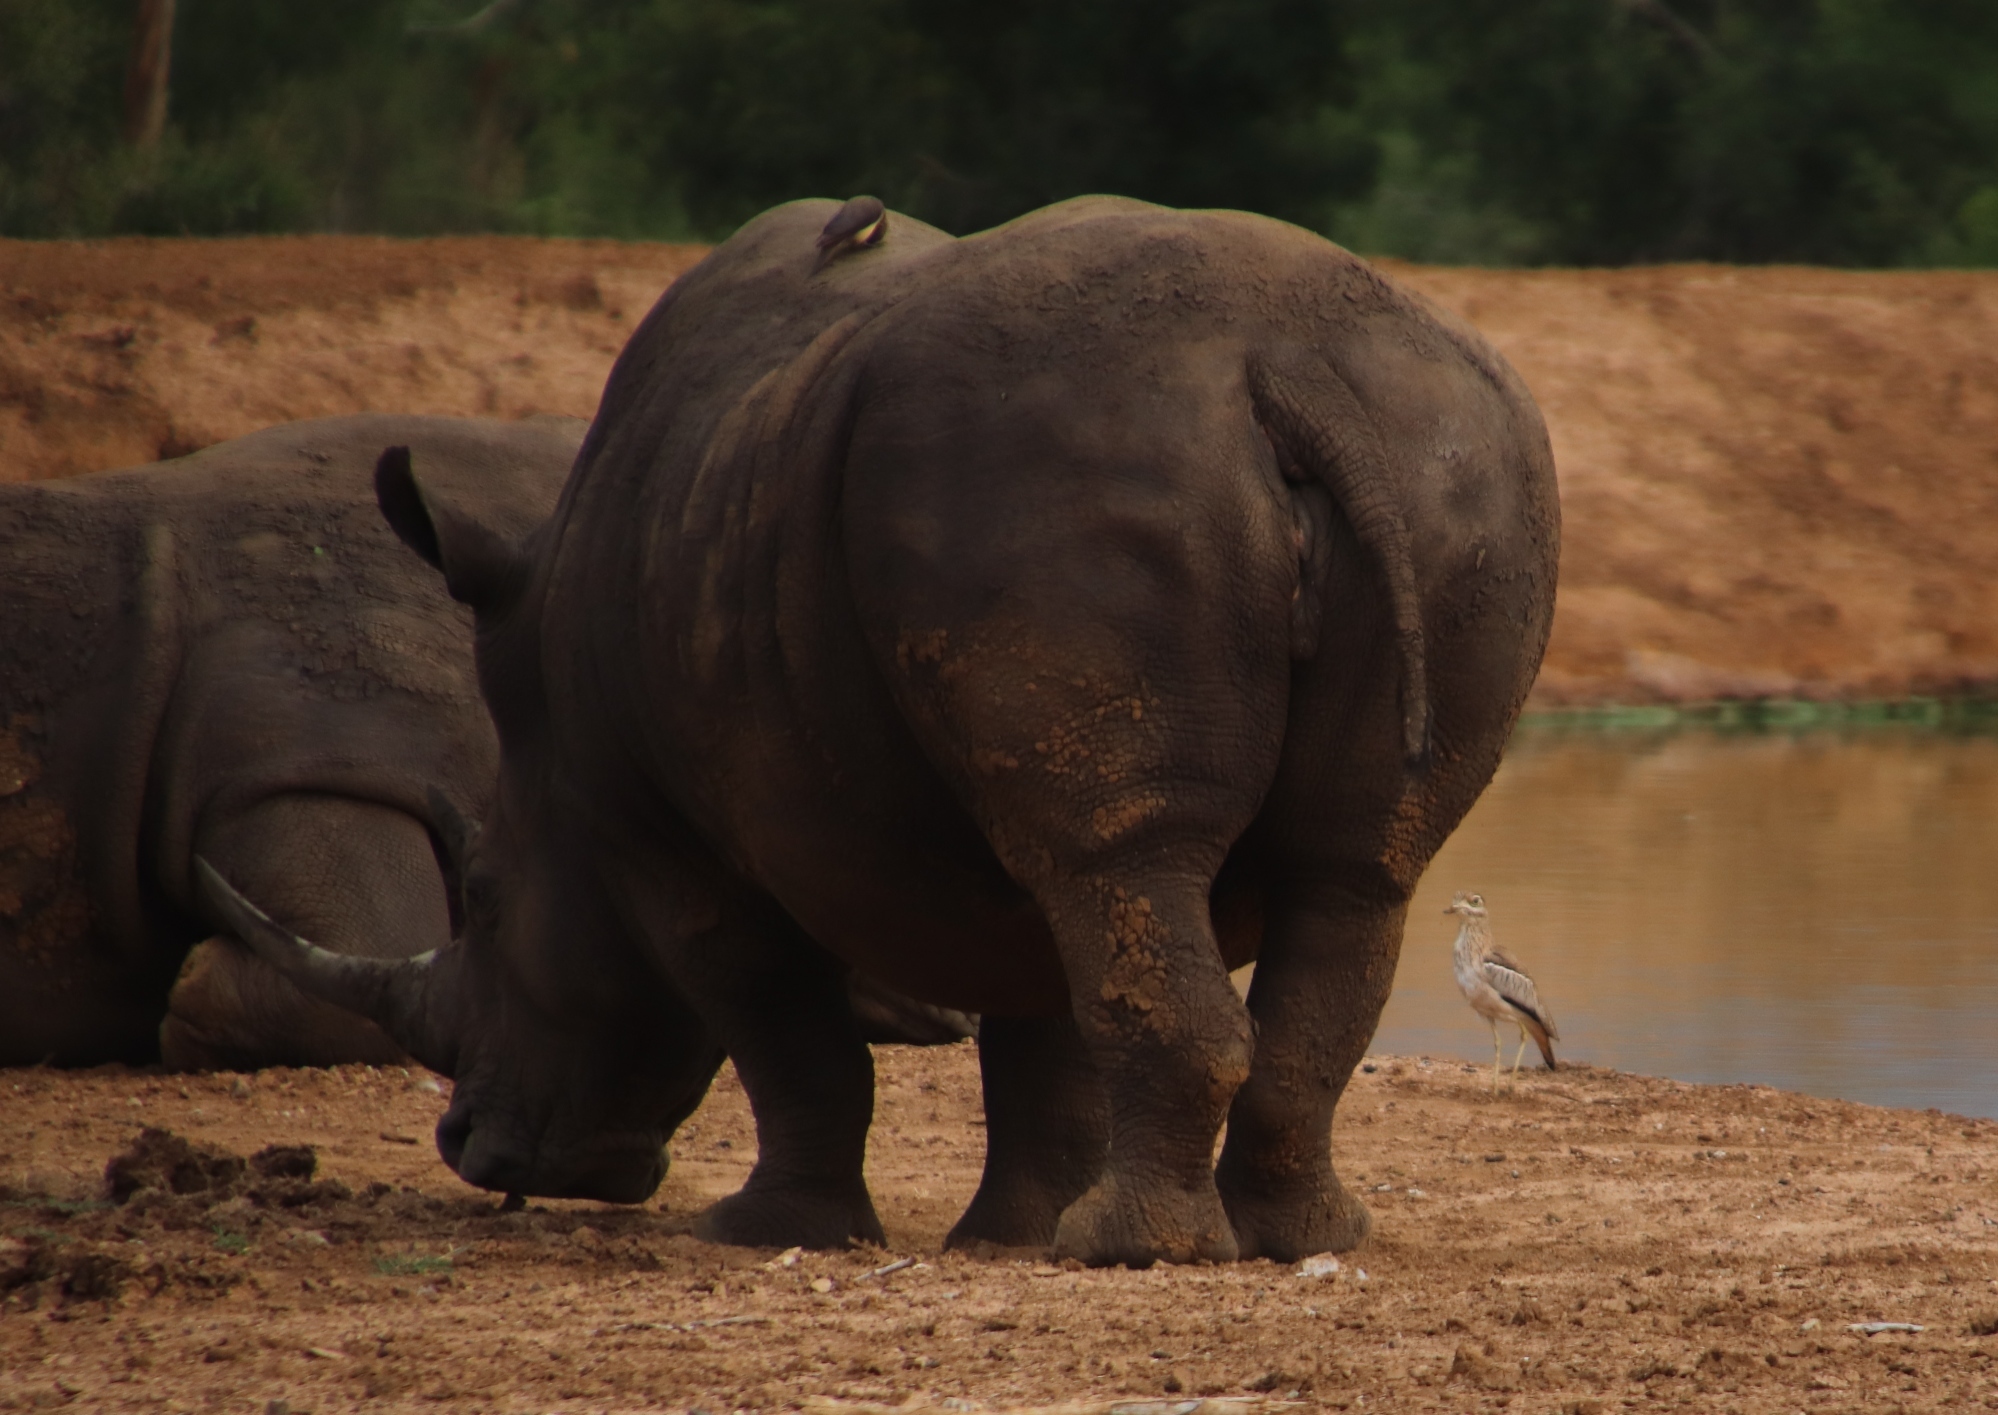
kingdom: Animalia
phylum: Chordata
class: Aves
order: Passeriformes
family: Buphagidae
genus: Buphagus
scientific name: Buphagus erythrorhynchus
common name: Red-billed oxpecker
